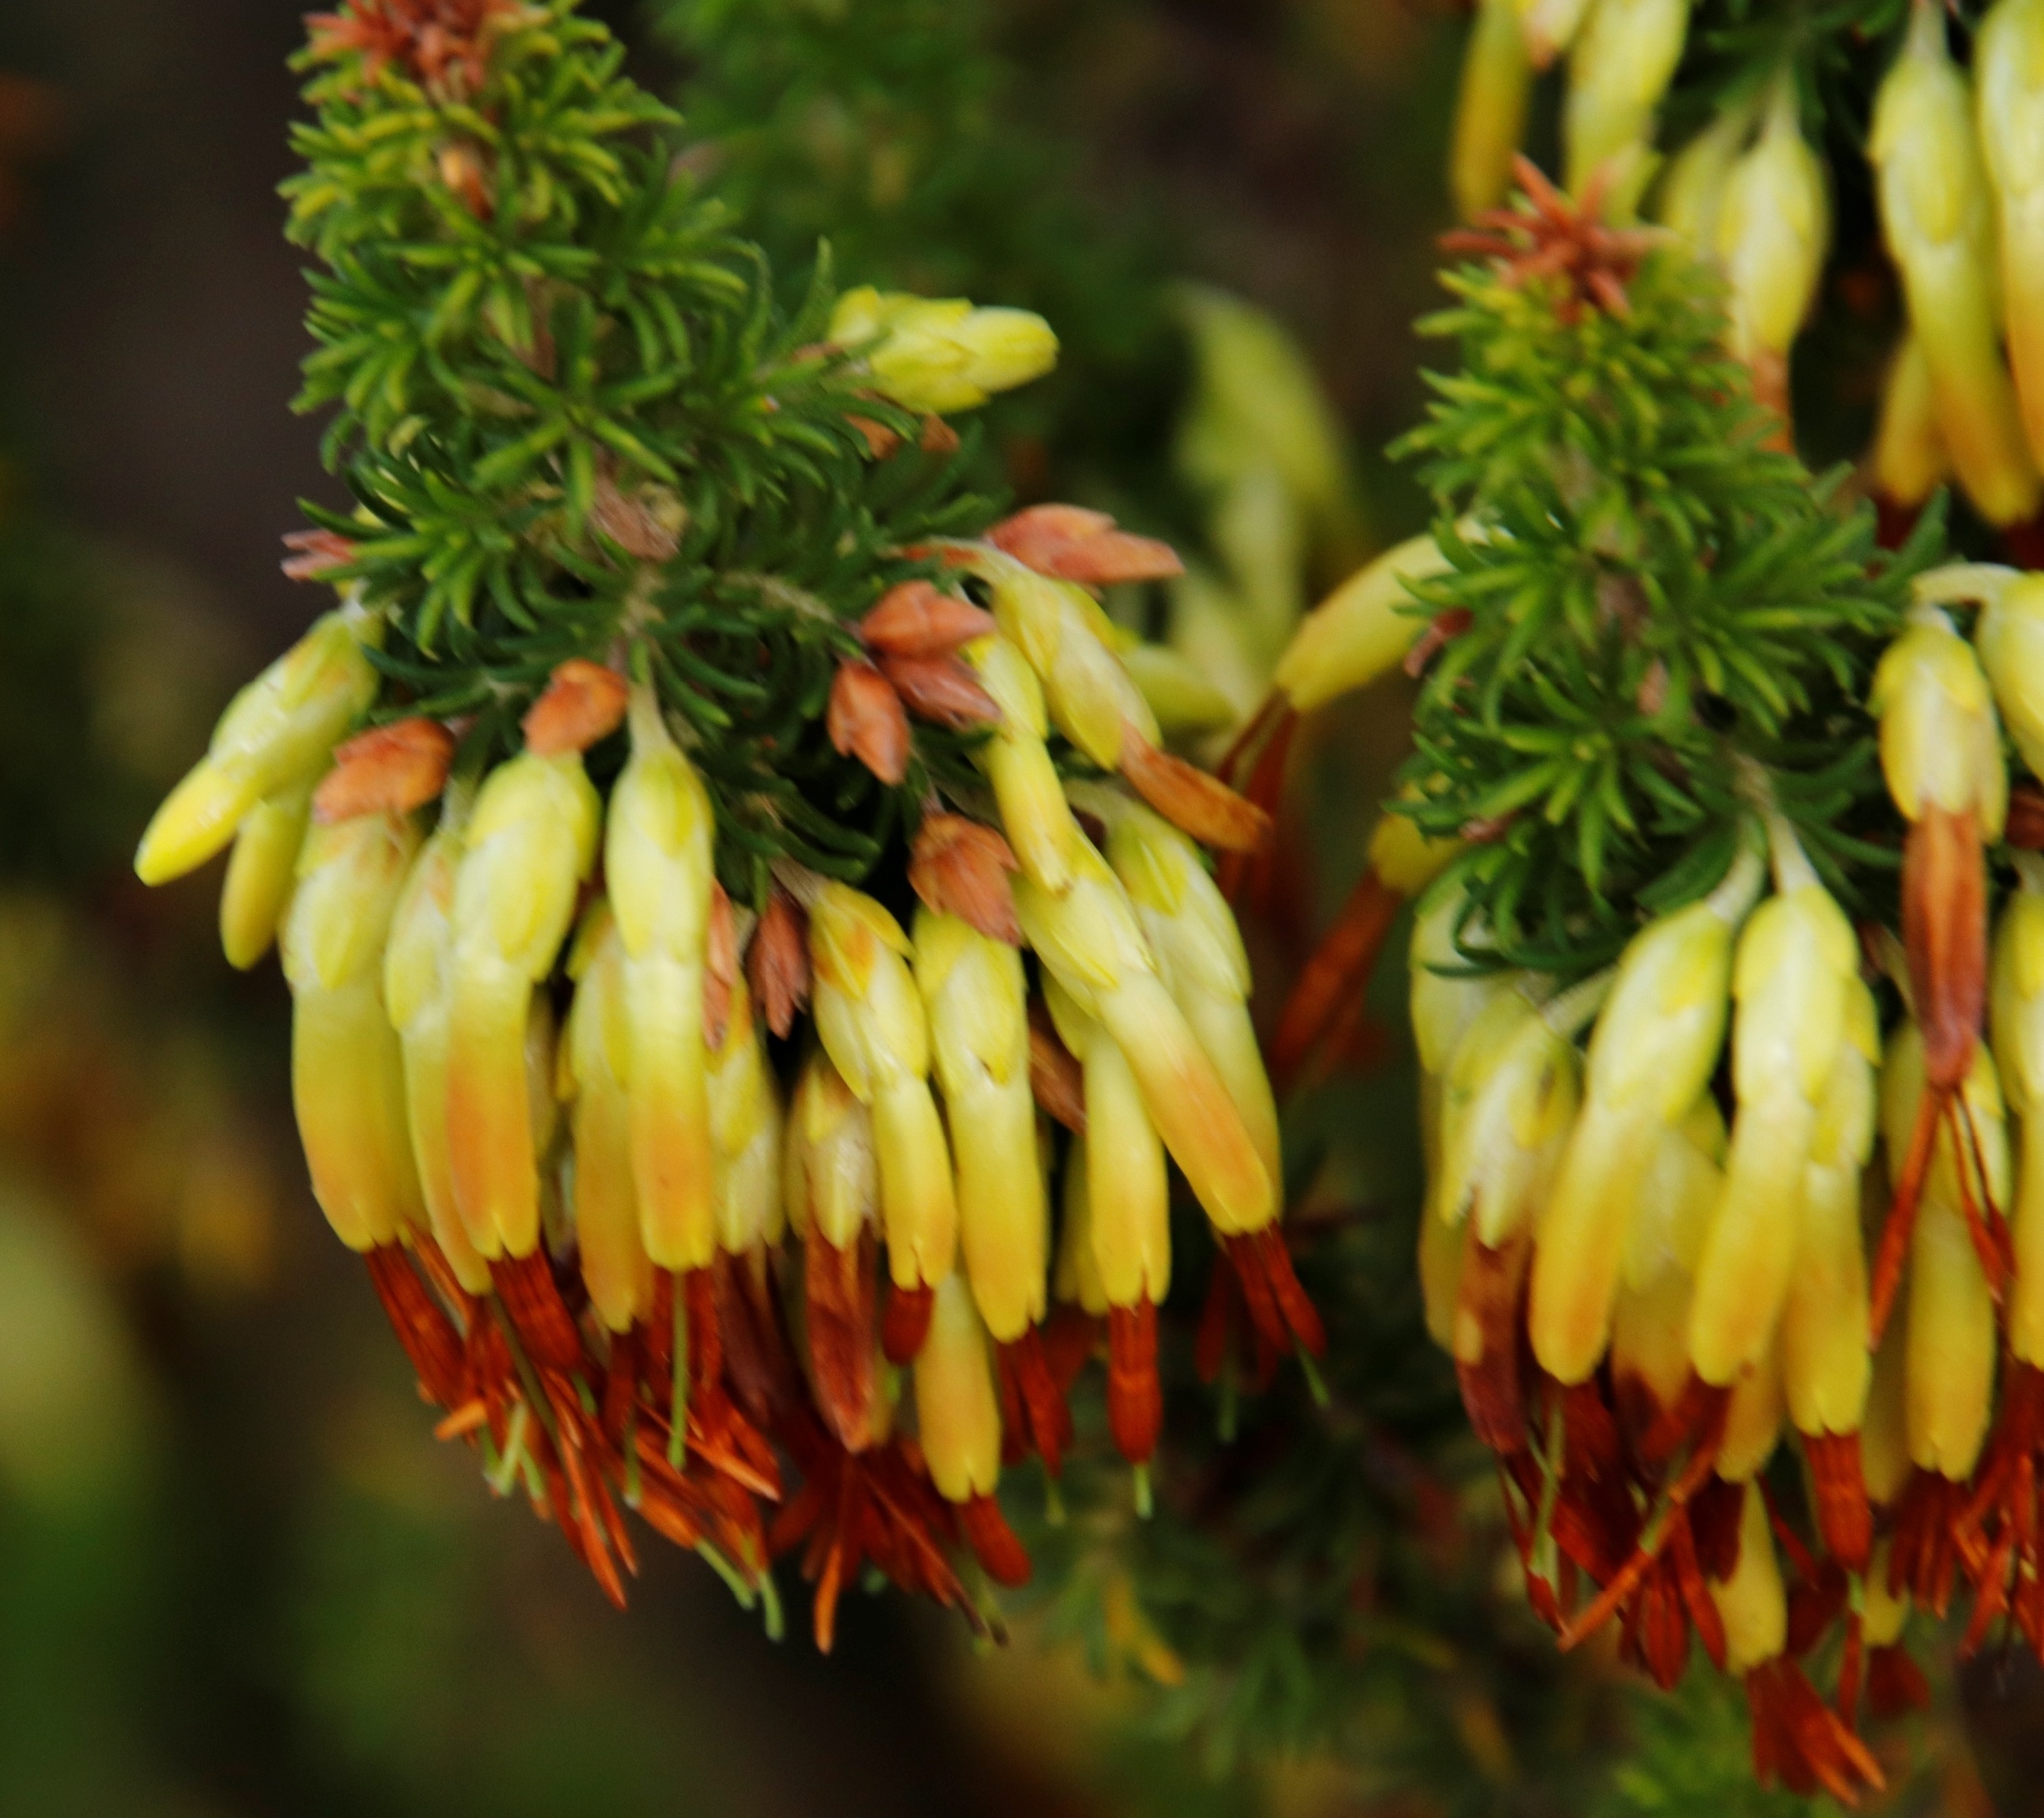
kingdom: Plantae
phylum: Tracheophyta
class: Magnoliopsida
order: Ericales
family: Ericaceae
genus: Erica
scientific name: Erica coccinea
